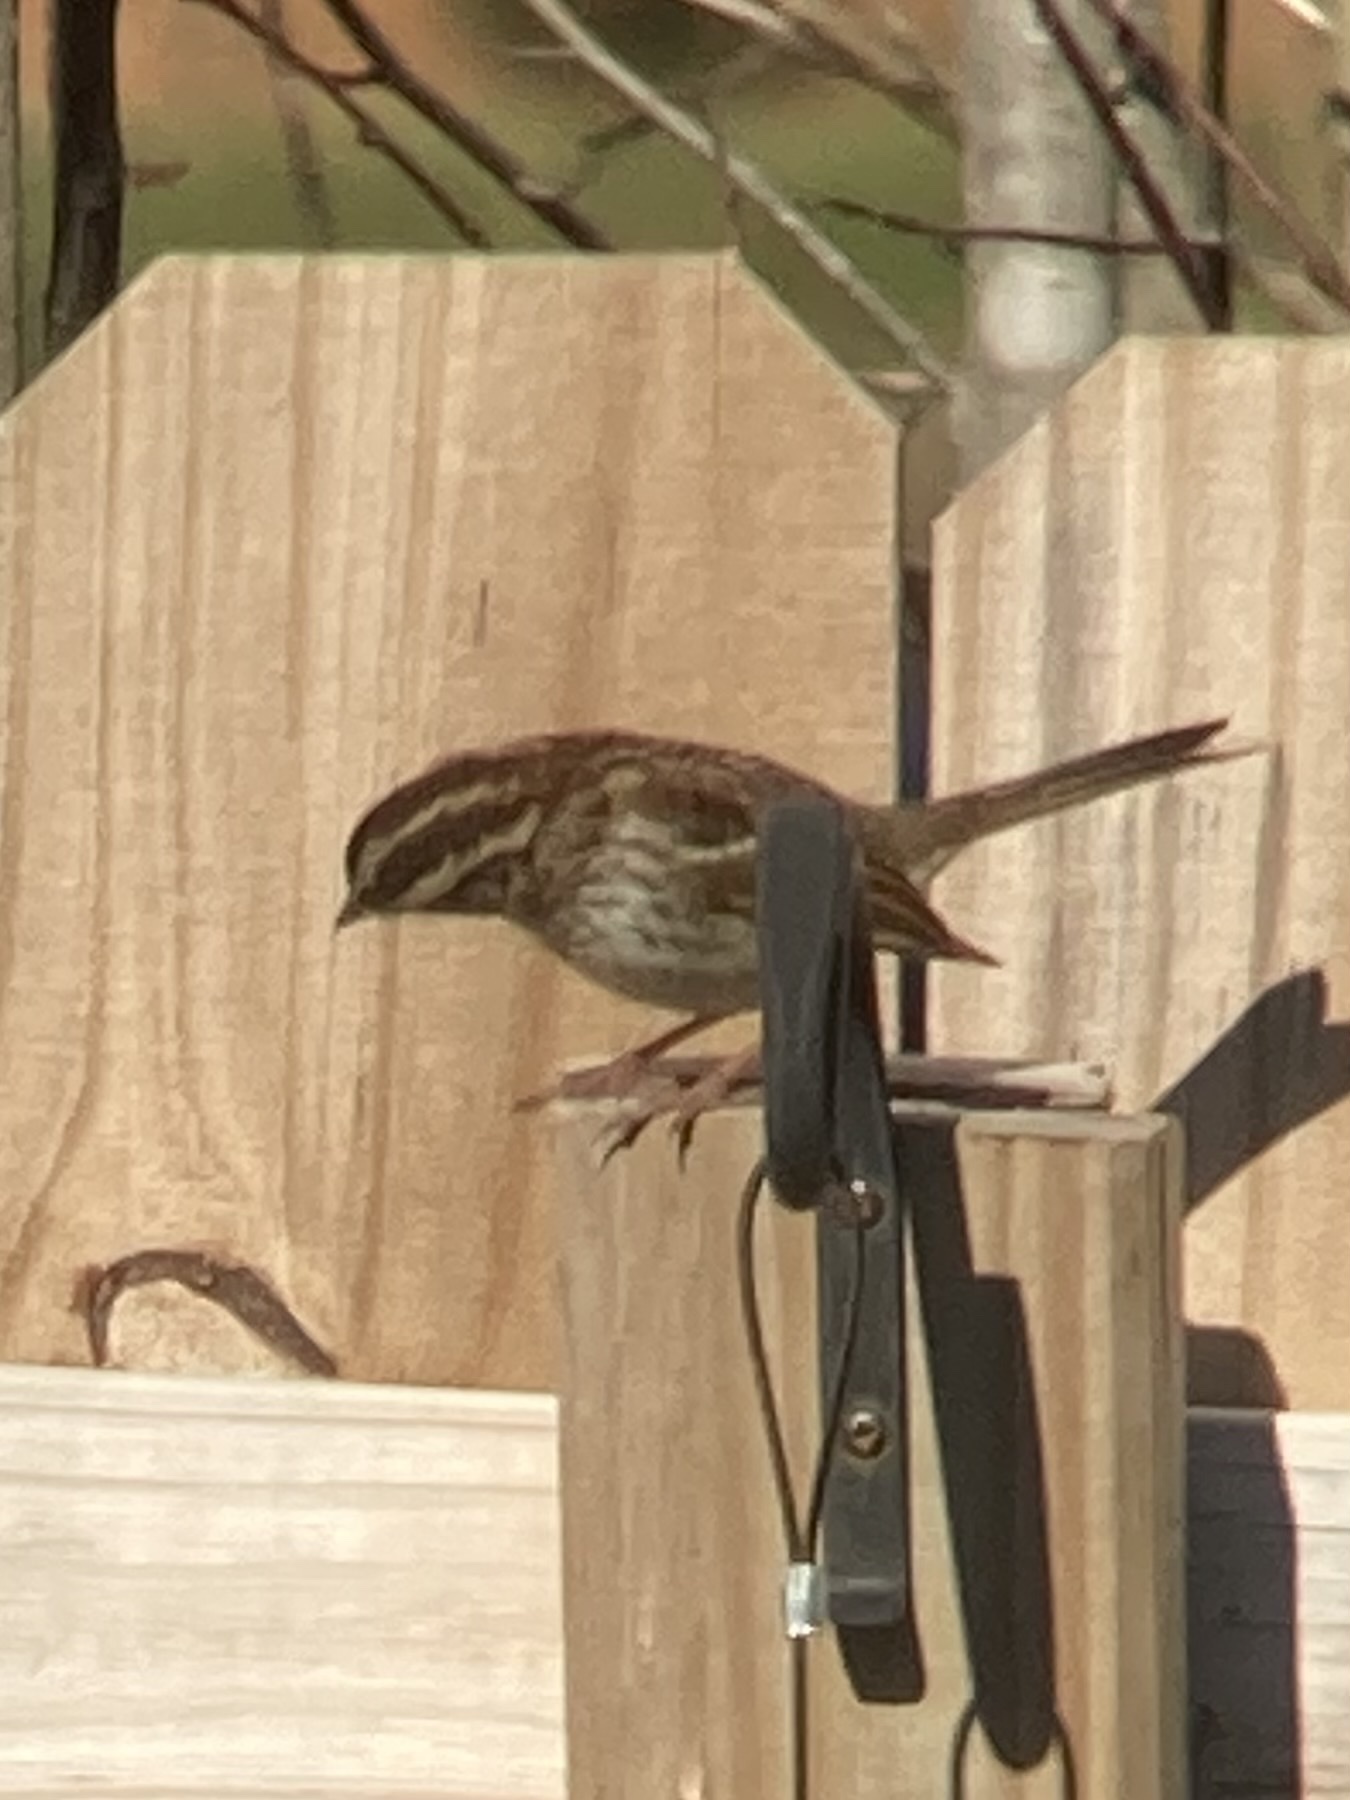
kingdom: Animalia
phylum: Chordata
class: Aves
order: Passeriformes
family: Passerellidae
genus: Zonotrichia
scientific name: Zonotrichia albicollis
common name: White-throated sparrow
